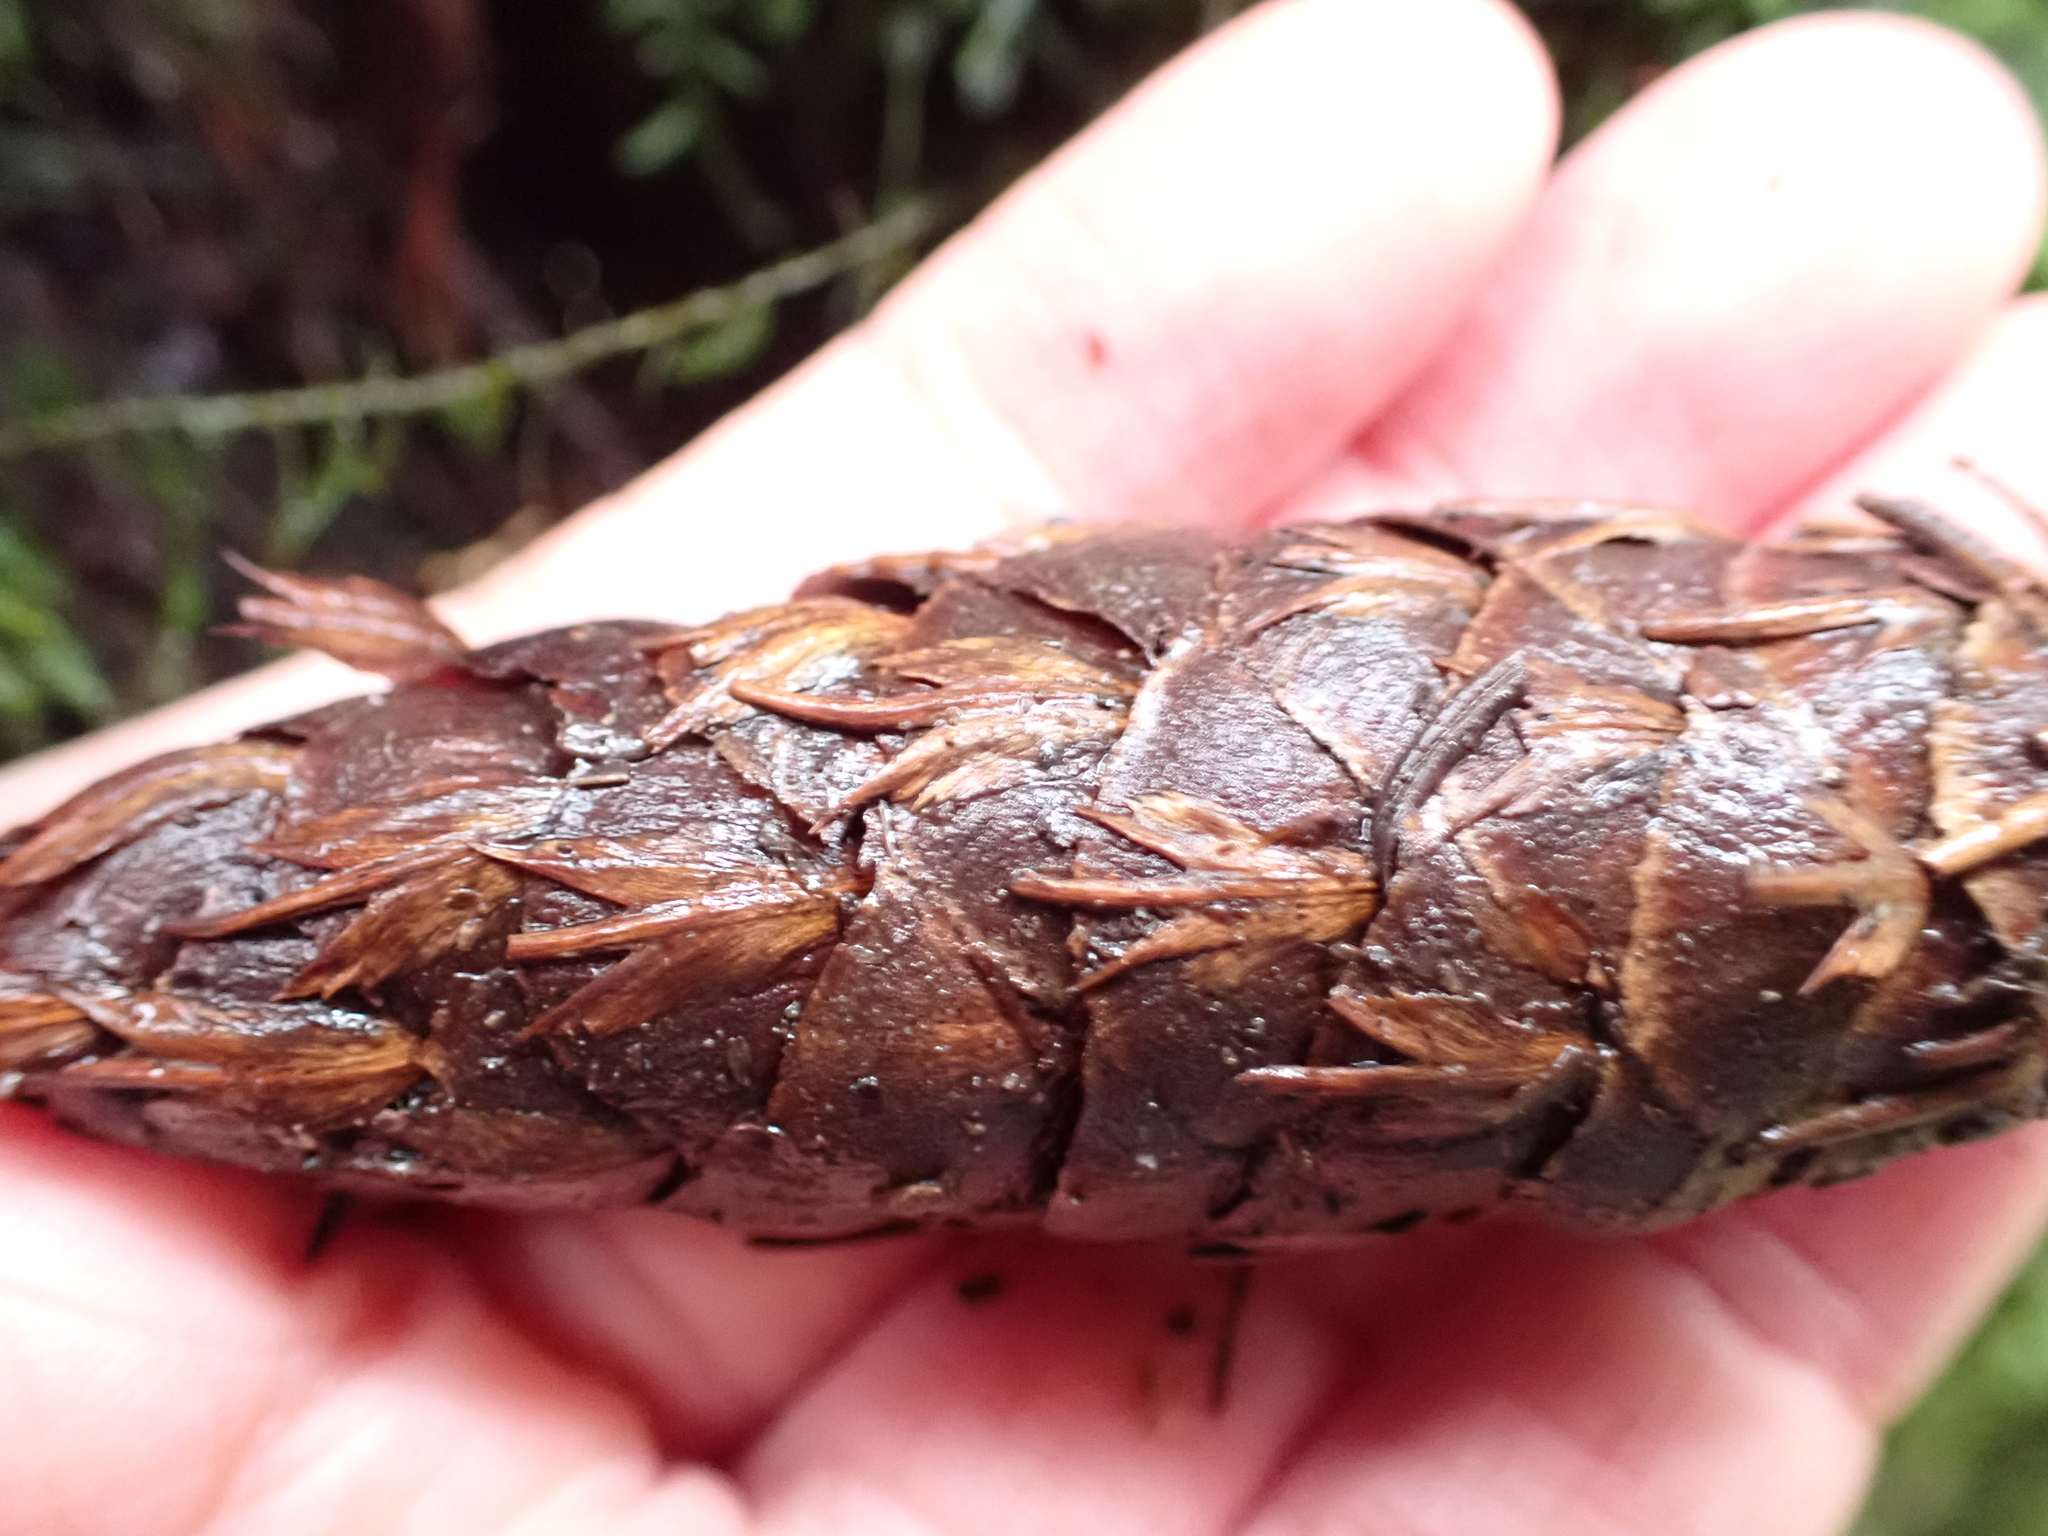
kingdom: Plantae
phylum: Tracheophyta
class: Pinopsida
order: Pinales
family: Pinaceae
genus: Pseudotsuga
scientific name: Pseudotsuga menziesii
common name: Douglas fir
